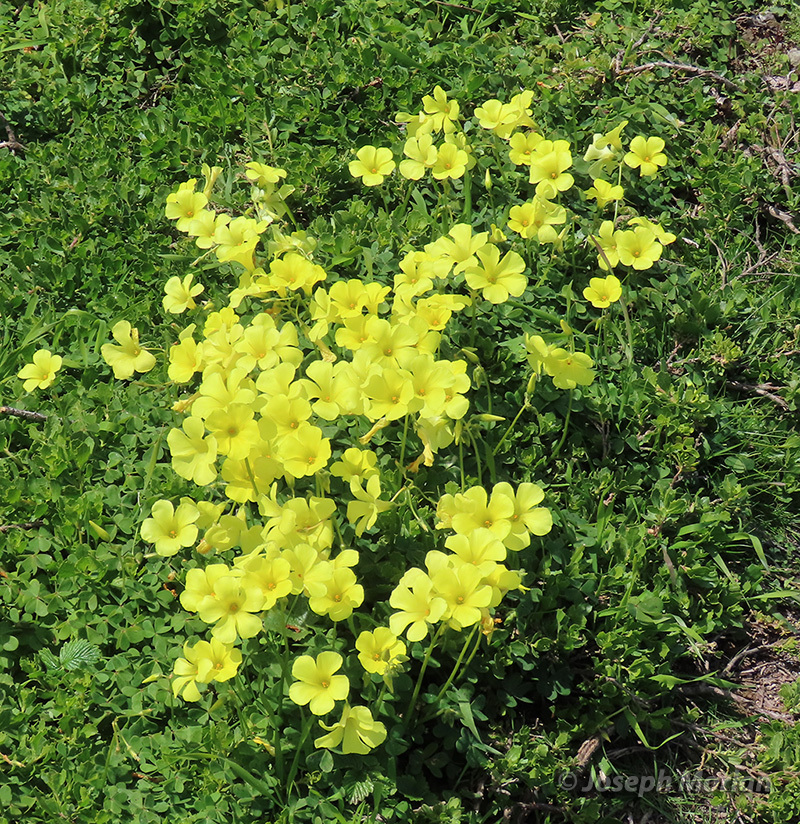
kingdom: Plantae
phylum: Tracheophyta
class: Magnoliopsida
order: Oxalidales
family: Oxalidaceae
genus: Oxalis
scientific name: Oxalis pes-caprae
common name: Bermuda-buttercup
